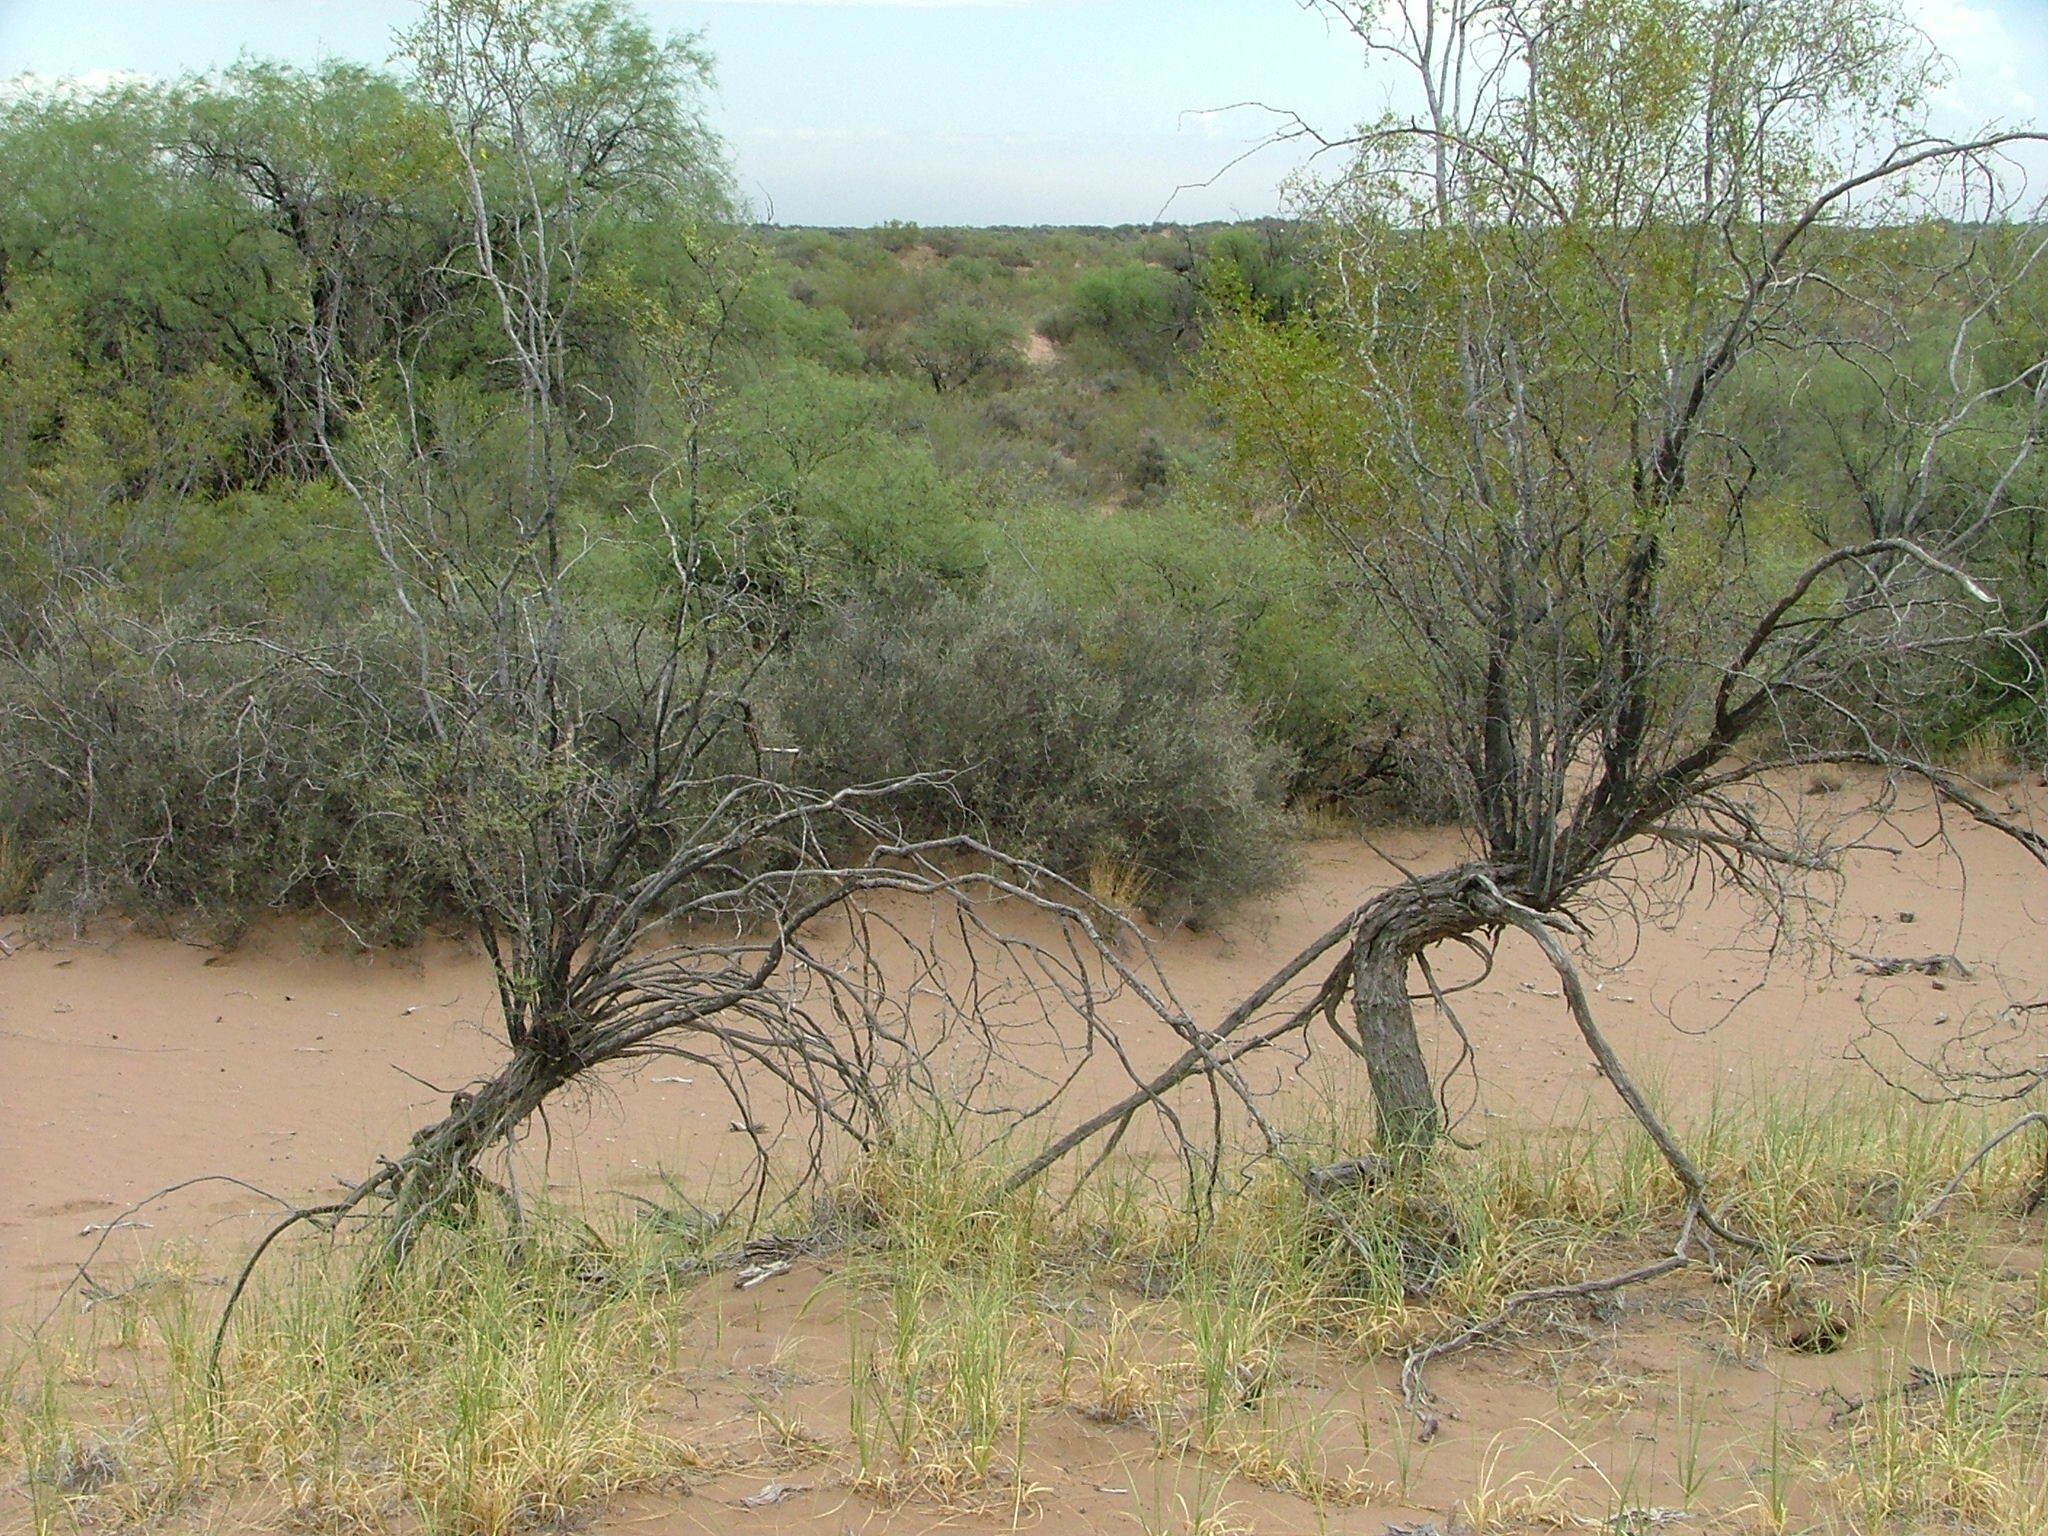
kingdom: Plantae
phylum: Tracheophyta
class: Magnoliopsida
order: Zygophyllales
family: Zygophyllaceae
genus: Larrea
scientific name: Larrea divaricata
